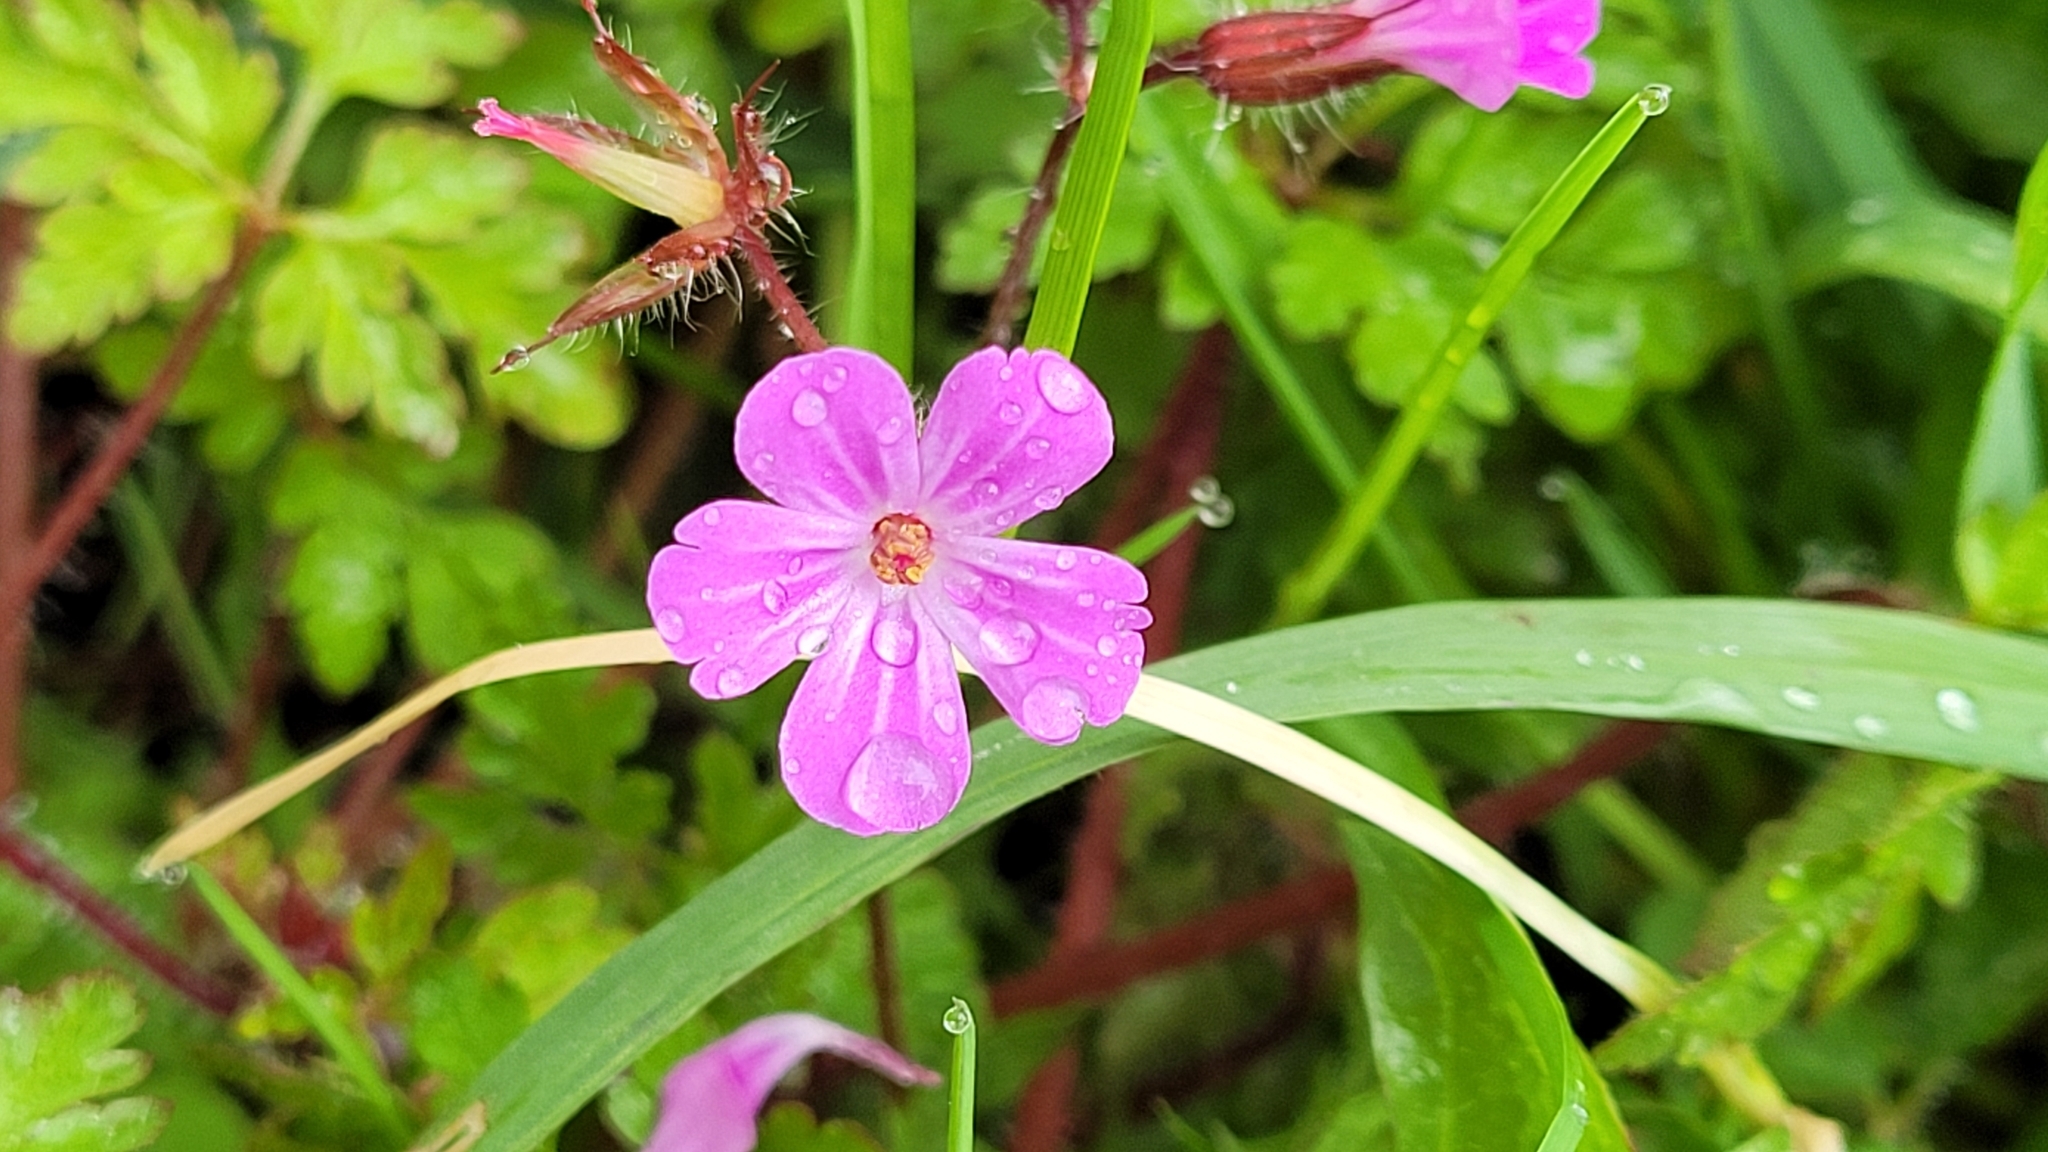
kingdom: Plantae
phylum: Tracheophyta
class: Magnoliopsida
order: Geraniales
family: Geraniaceae
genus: Geranium
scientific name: Geranium robertianum
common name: Herb-robert
